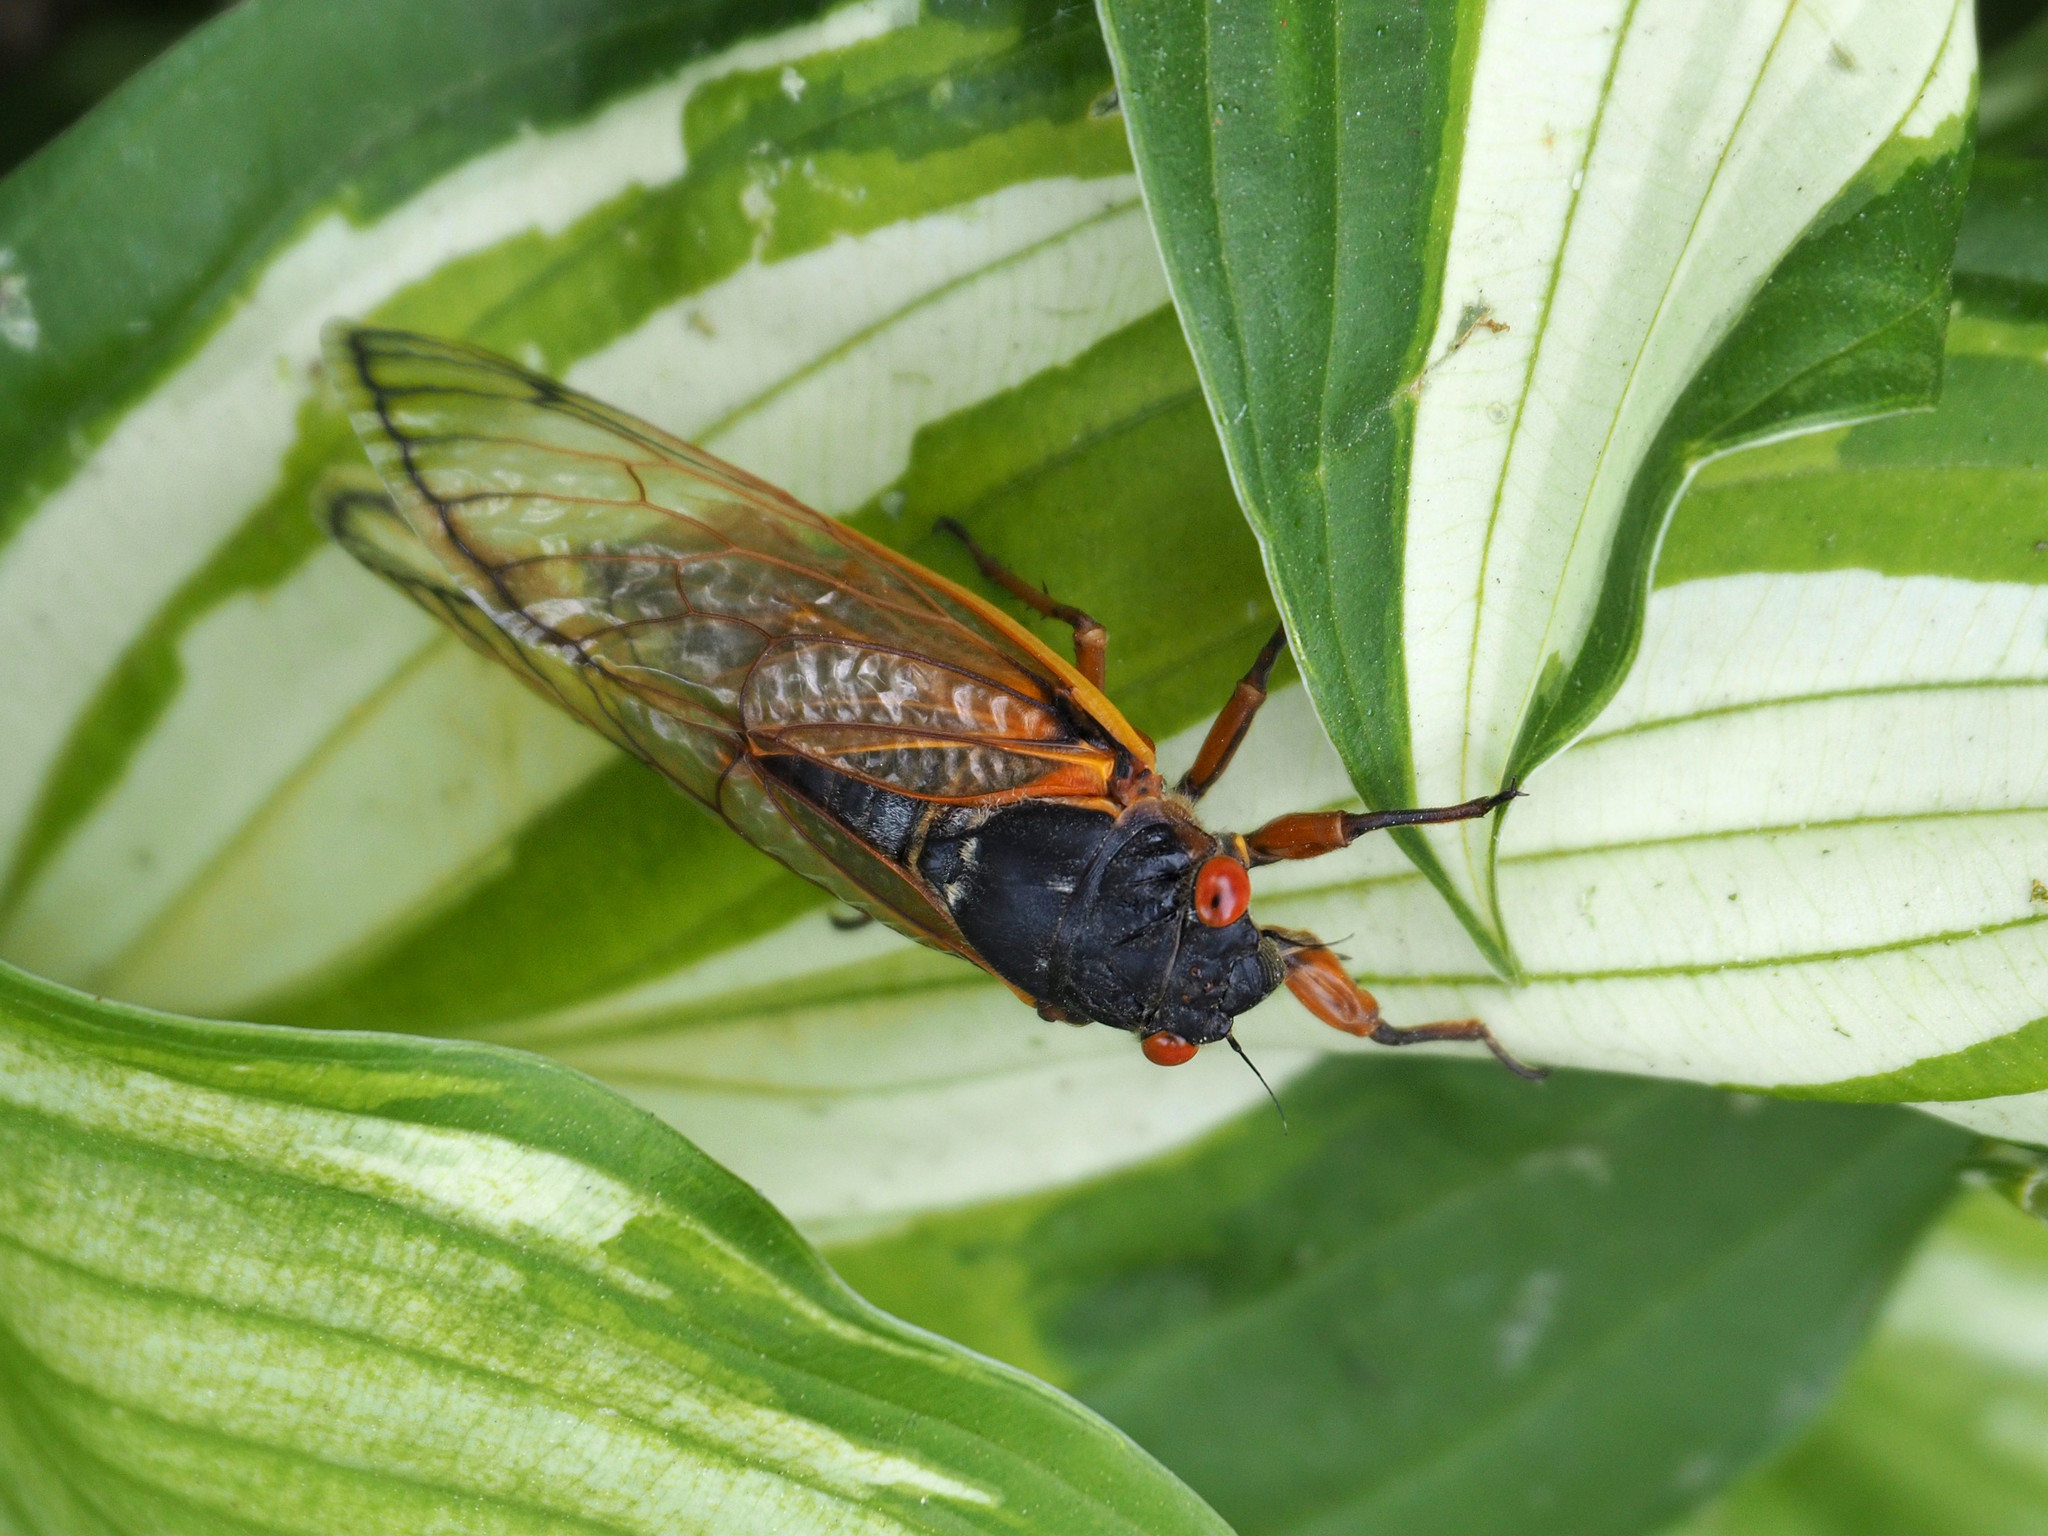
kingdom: Animalia
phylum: Arthropoda
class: Insecta
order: Hemiptera
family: Cicadidae
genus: Magicicada
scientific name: Magicicada septendecim
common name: Periodical cicada
